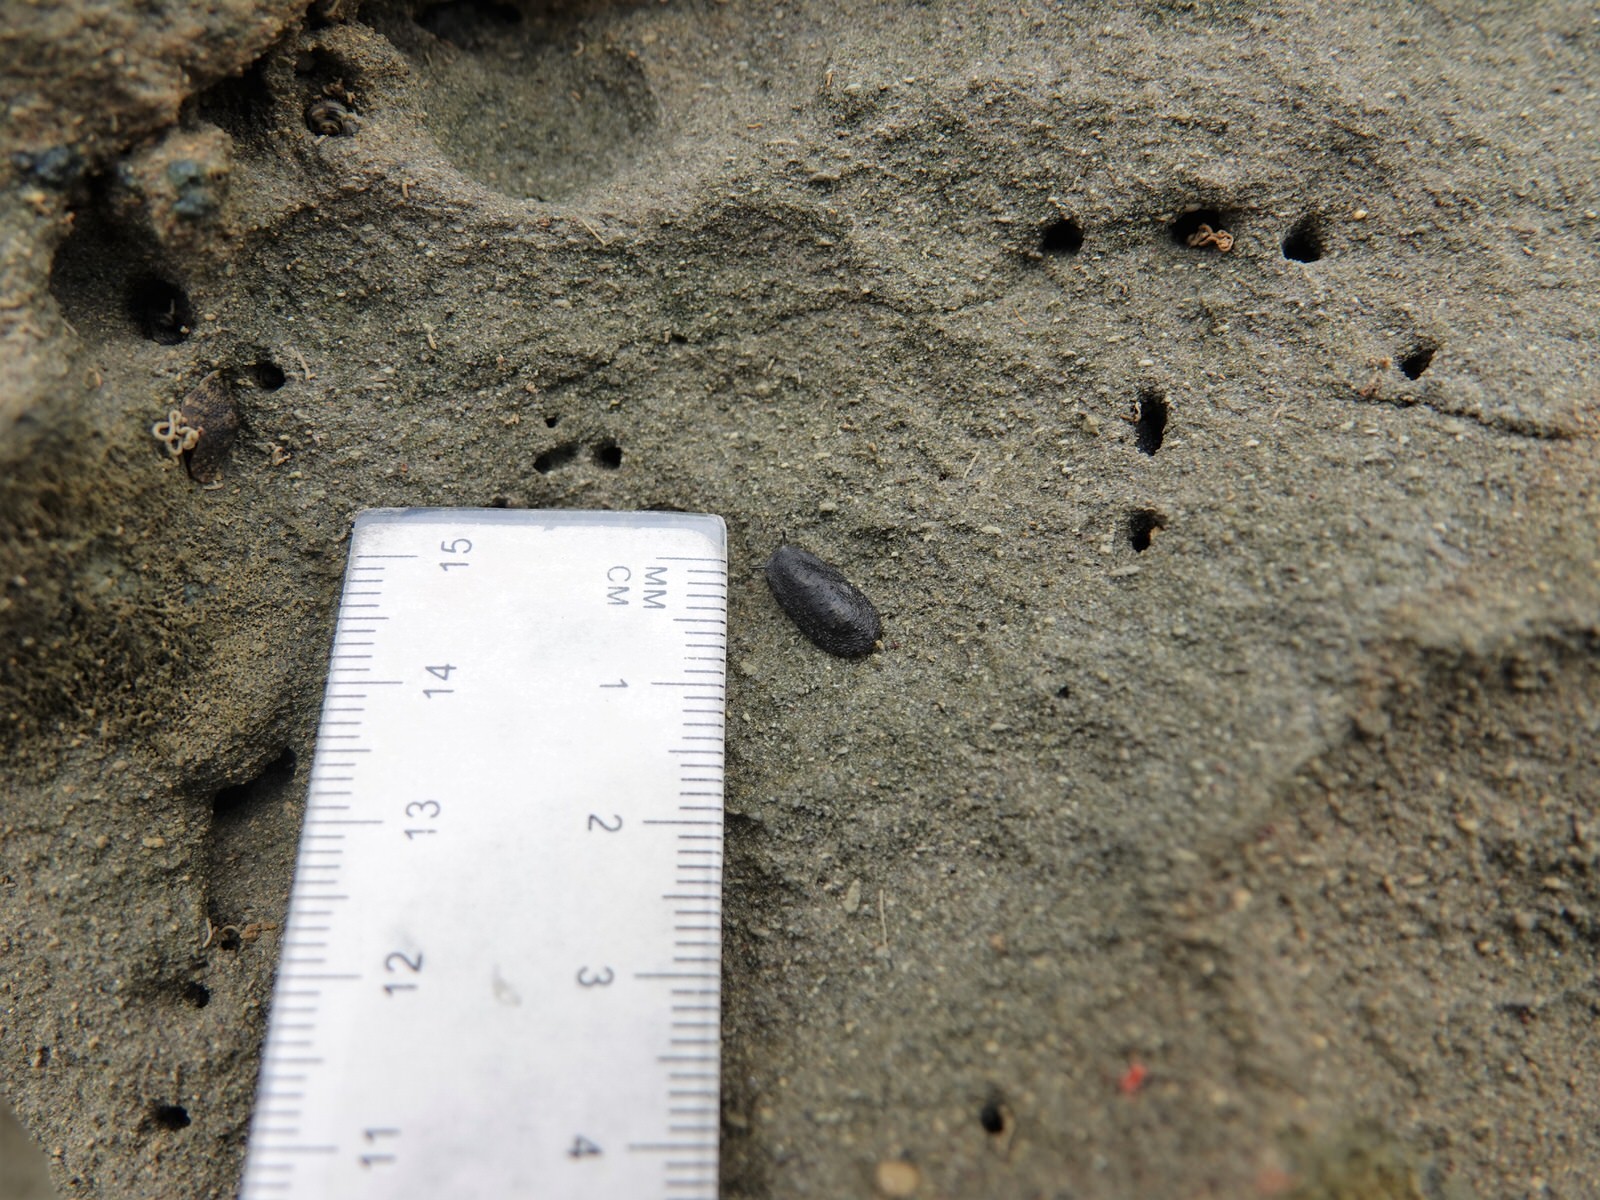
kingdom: Animalia
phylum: Mollusca
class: Gastropoda
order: Systellommatophora
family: Onchidiidae
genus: Onchidella
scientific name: Onchidella nigricans
